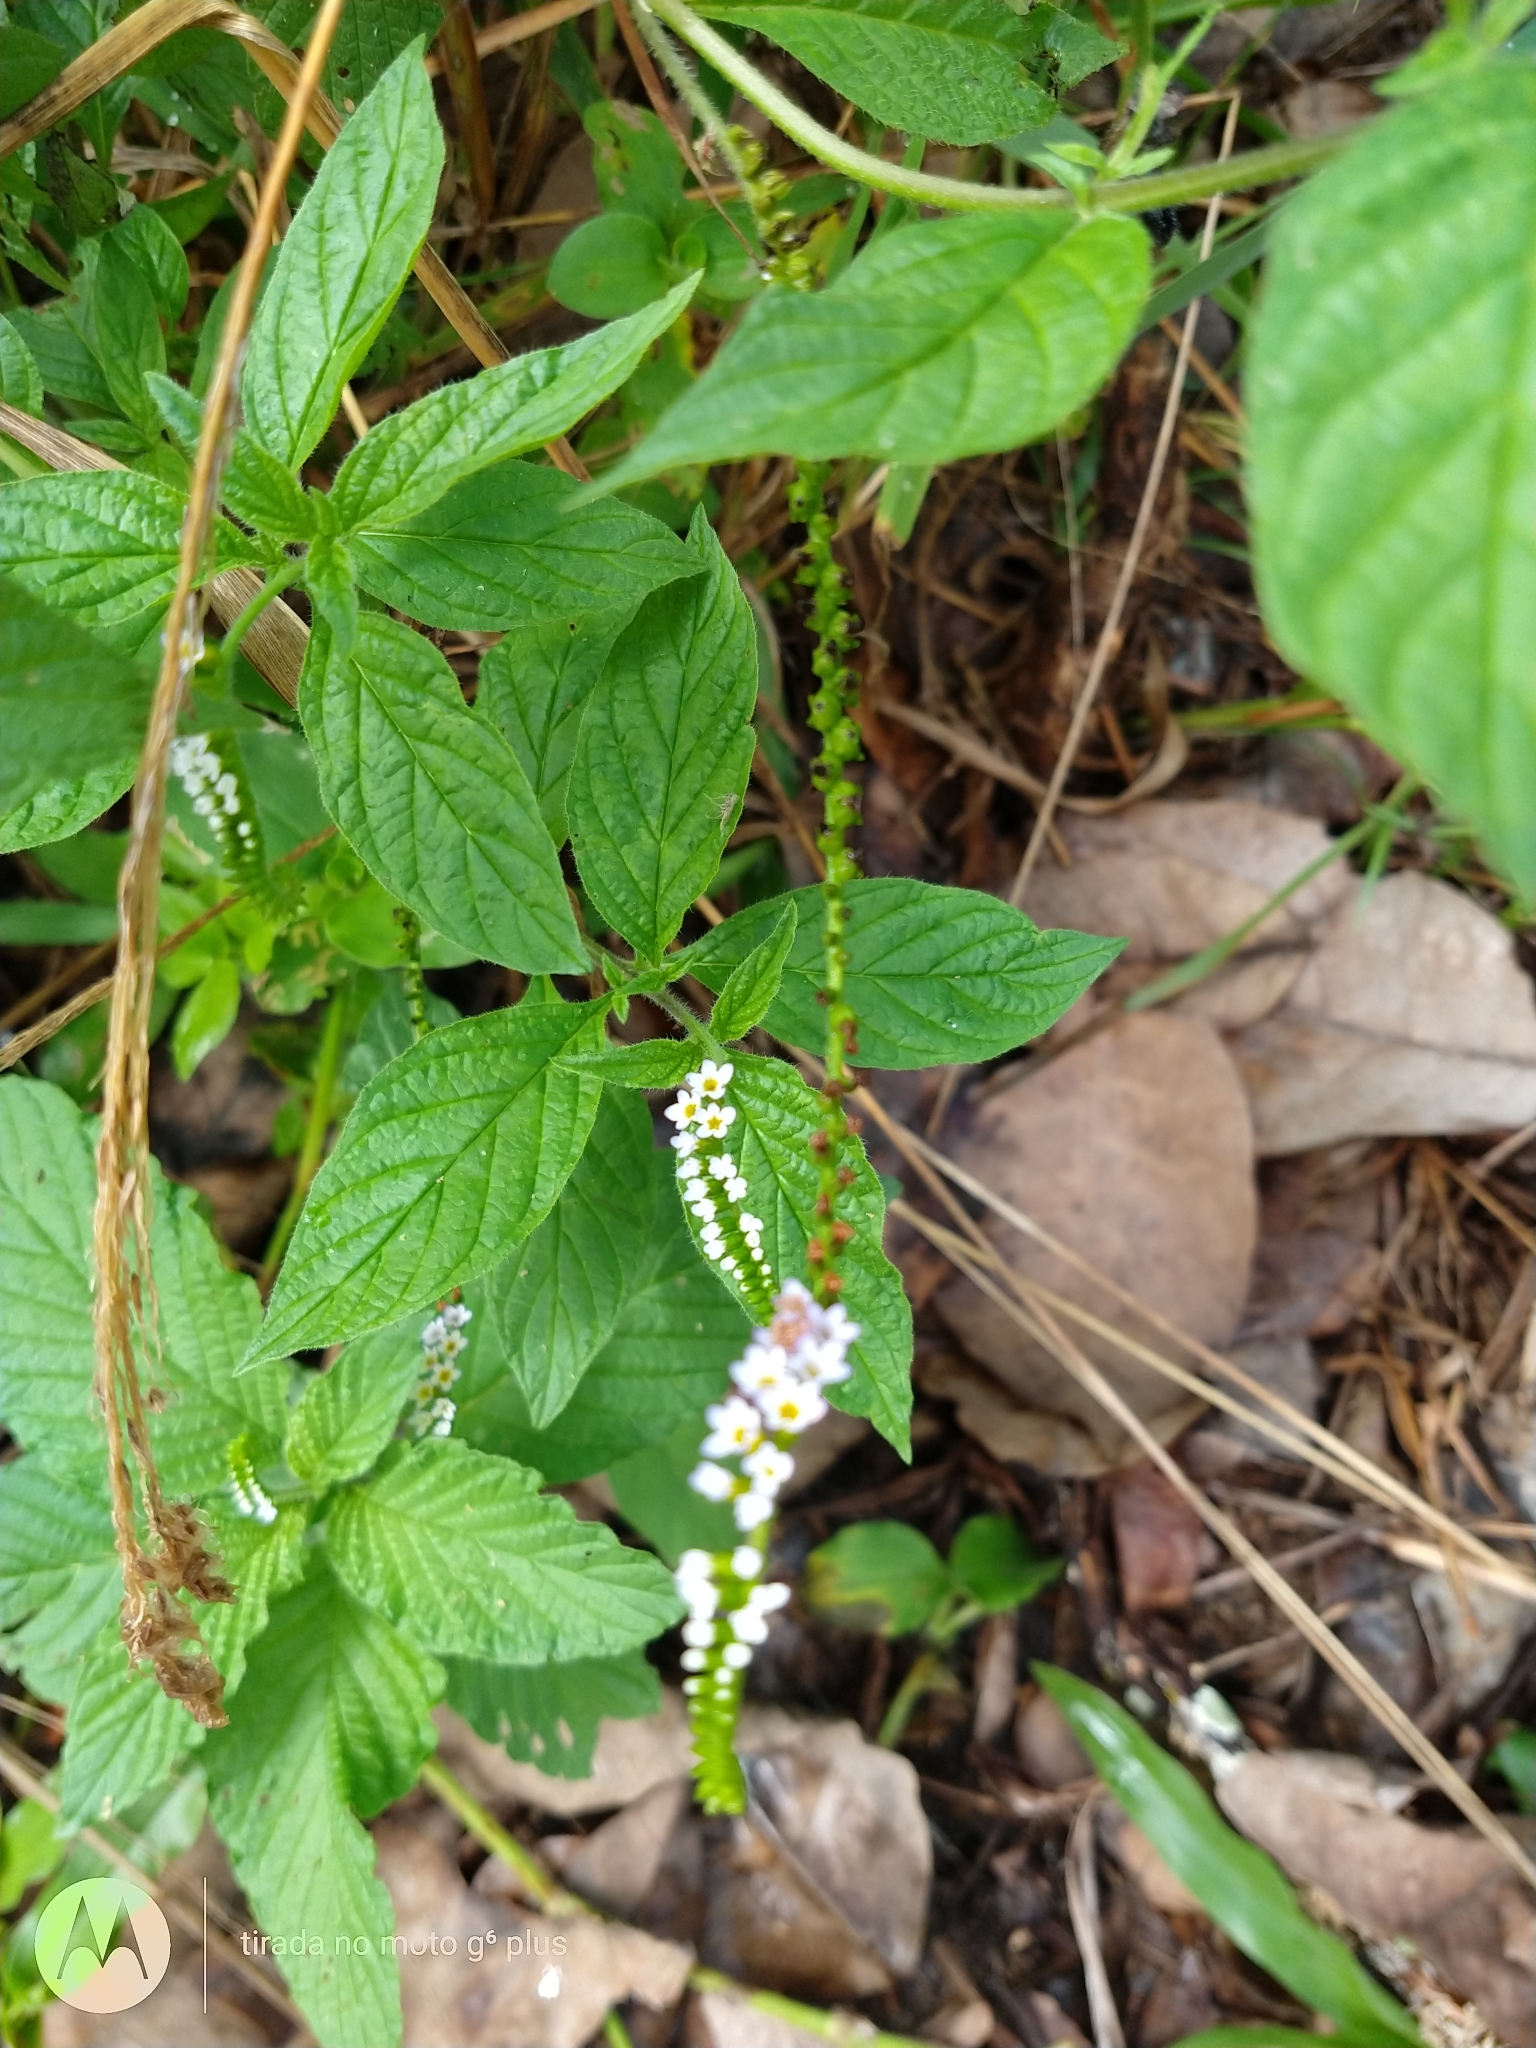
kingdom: Plantae
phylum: Tracheophyta
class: Magnoliopsida
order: Boraginales
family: Heliotropiaceae
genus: Heliotropium
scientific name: Heliotropium angiospermum
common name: Eye bright
